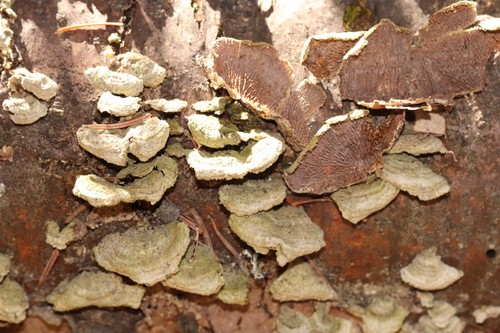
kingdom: Fungi
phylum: Basidiomycota
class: Agaricomycetes
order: Hymenochaetales
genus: Trichaptum
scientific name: Trichaptum fuscoviolaceum
